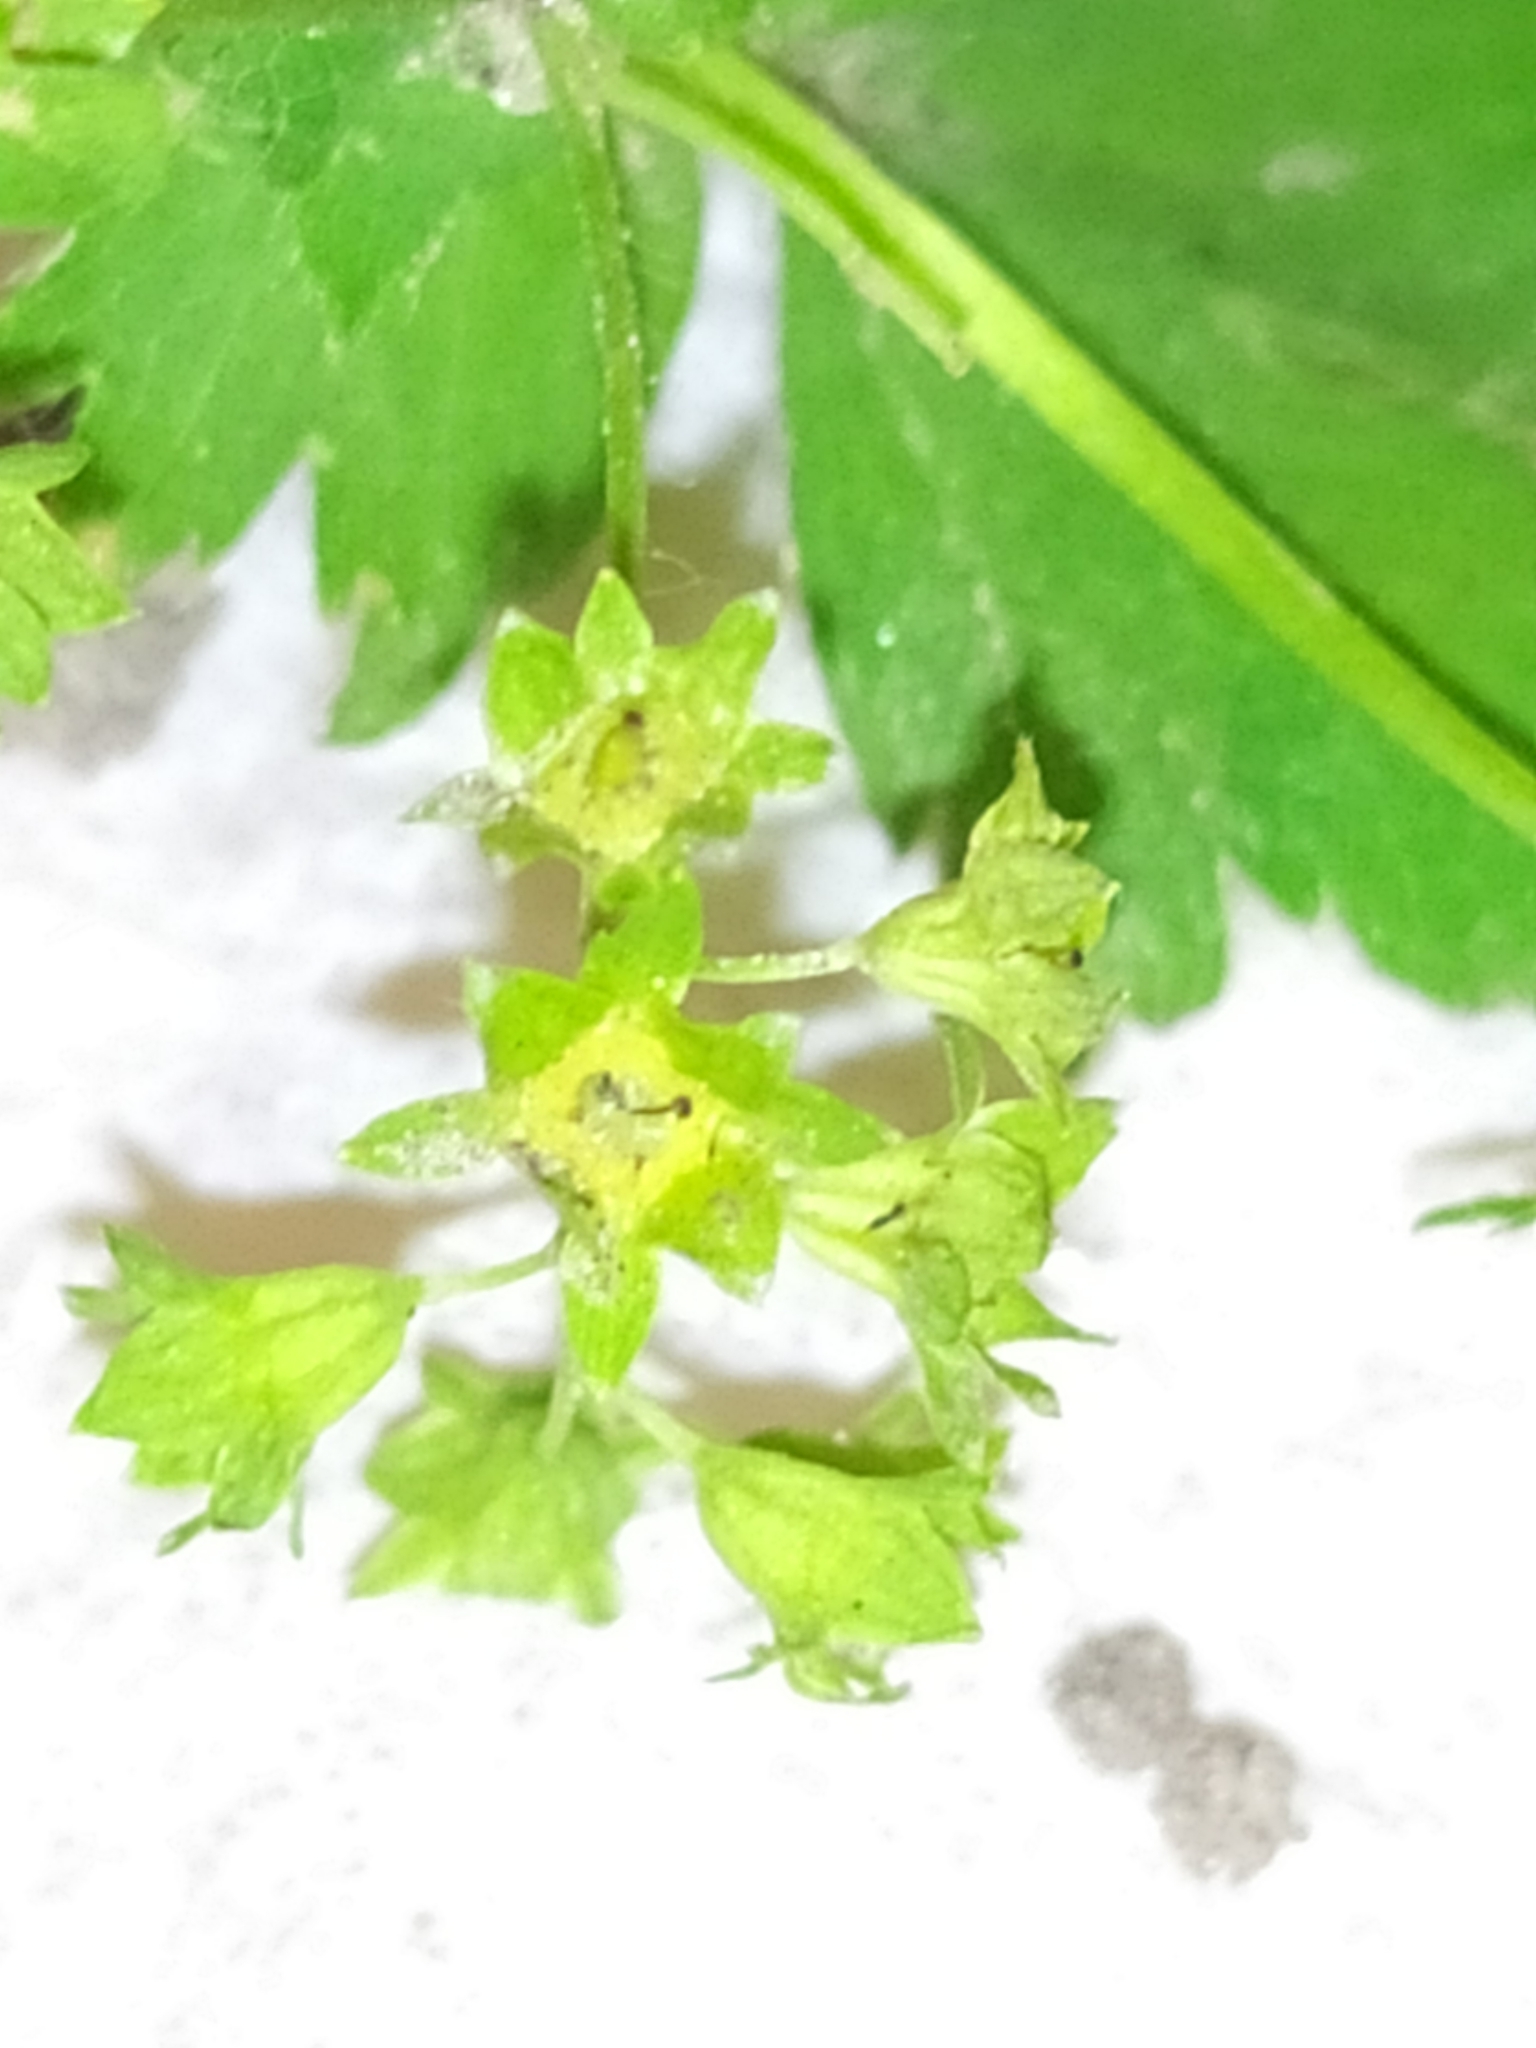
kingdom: Plantae
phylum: Tracheophyta
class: Magnoliopsida
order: Rosales
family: Rosaceae
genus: Alchemilla
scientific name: Alchemilla tichomirovii
